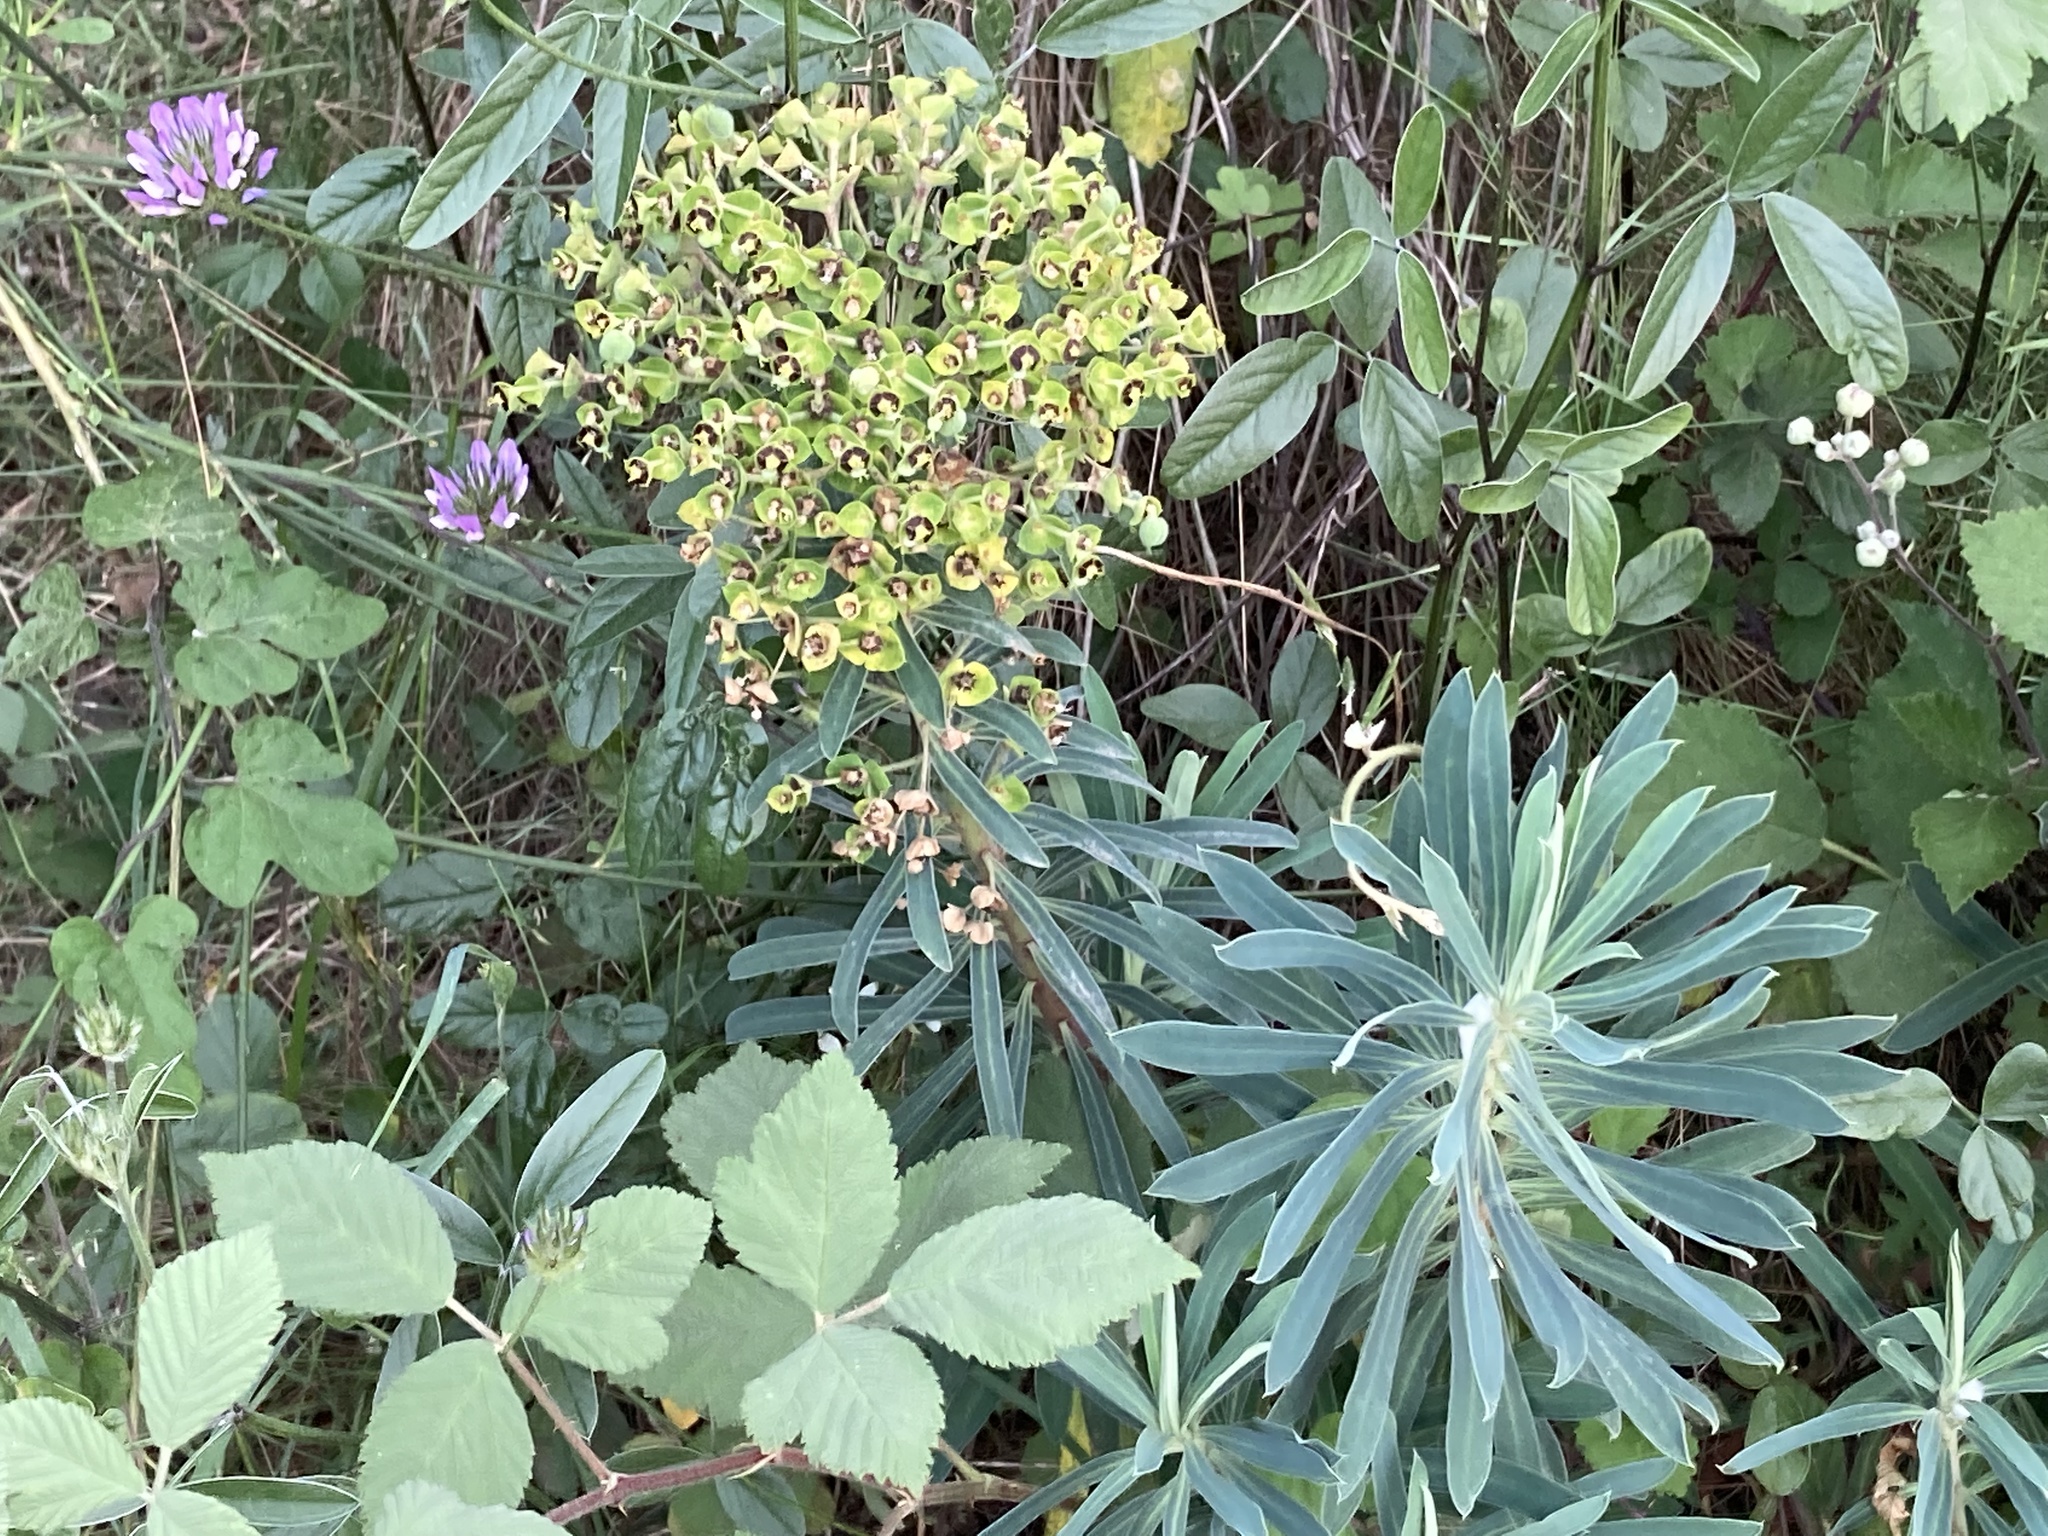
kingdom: Plantae
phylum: Tracheophyta
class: Magnoliopsida
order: Malpighiales
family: Euphorbiaceae
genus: Euphorbia
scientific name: Euphorbia characias
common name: Mediterranean spurge
